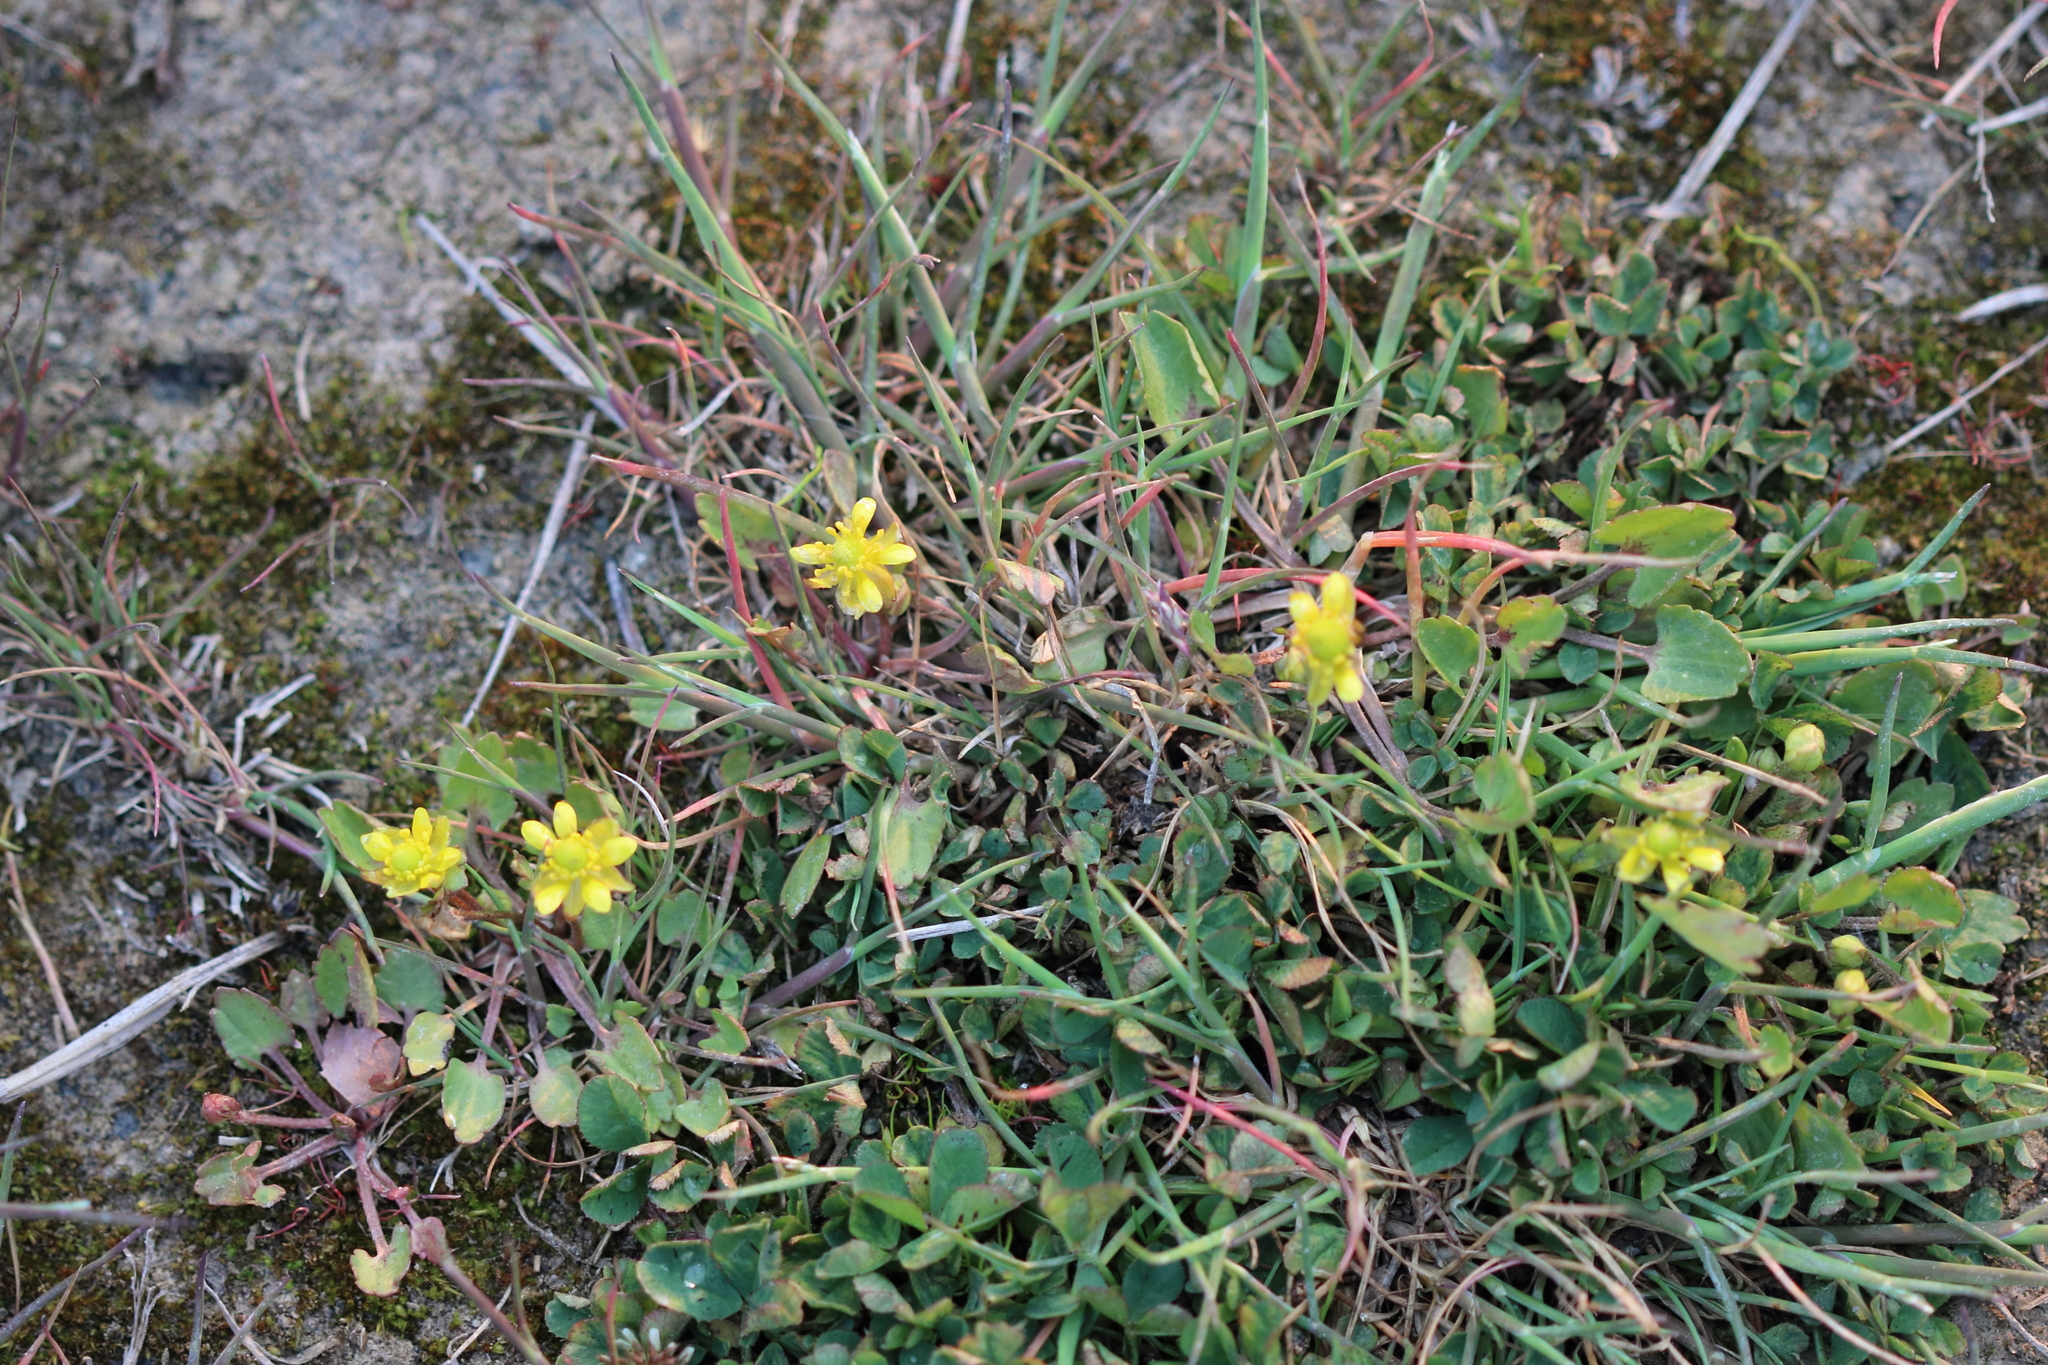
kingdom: Plantae
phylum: Tracheophyta
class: Magnoliopsida
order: Ranunculales
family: Ranunculaceae
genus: Halerpestes
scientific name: Halerpestes cymbalaria
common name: Seaside crowfoot
